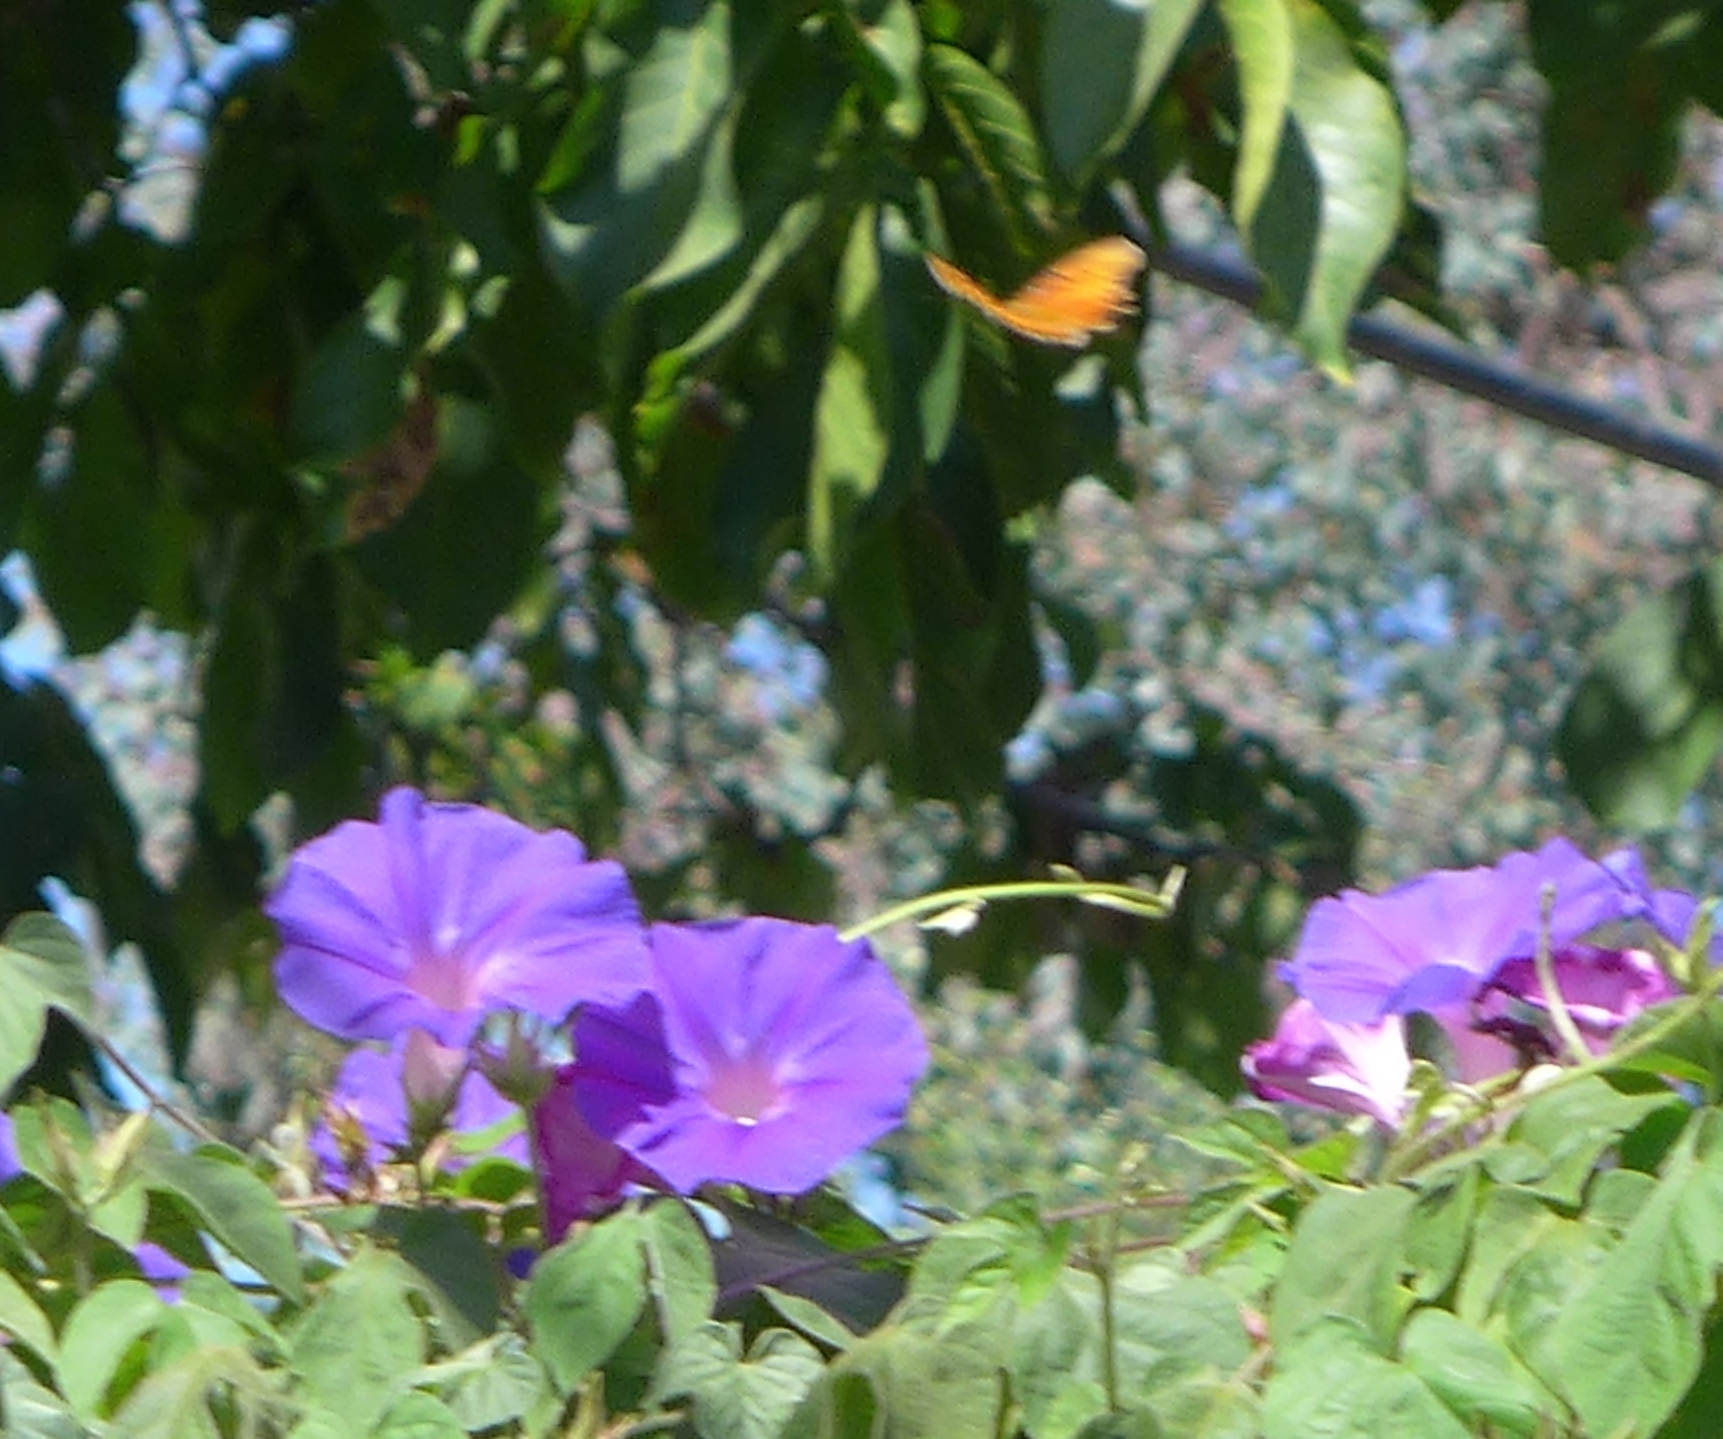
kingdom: Animalia
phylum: Arthropoda
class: Insecta
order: Lepidoptera
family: Nymphalidae
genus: Dione
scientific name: Dione vanillae
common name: Gulf fritillary
